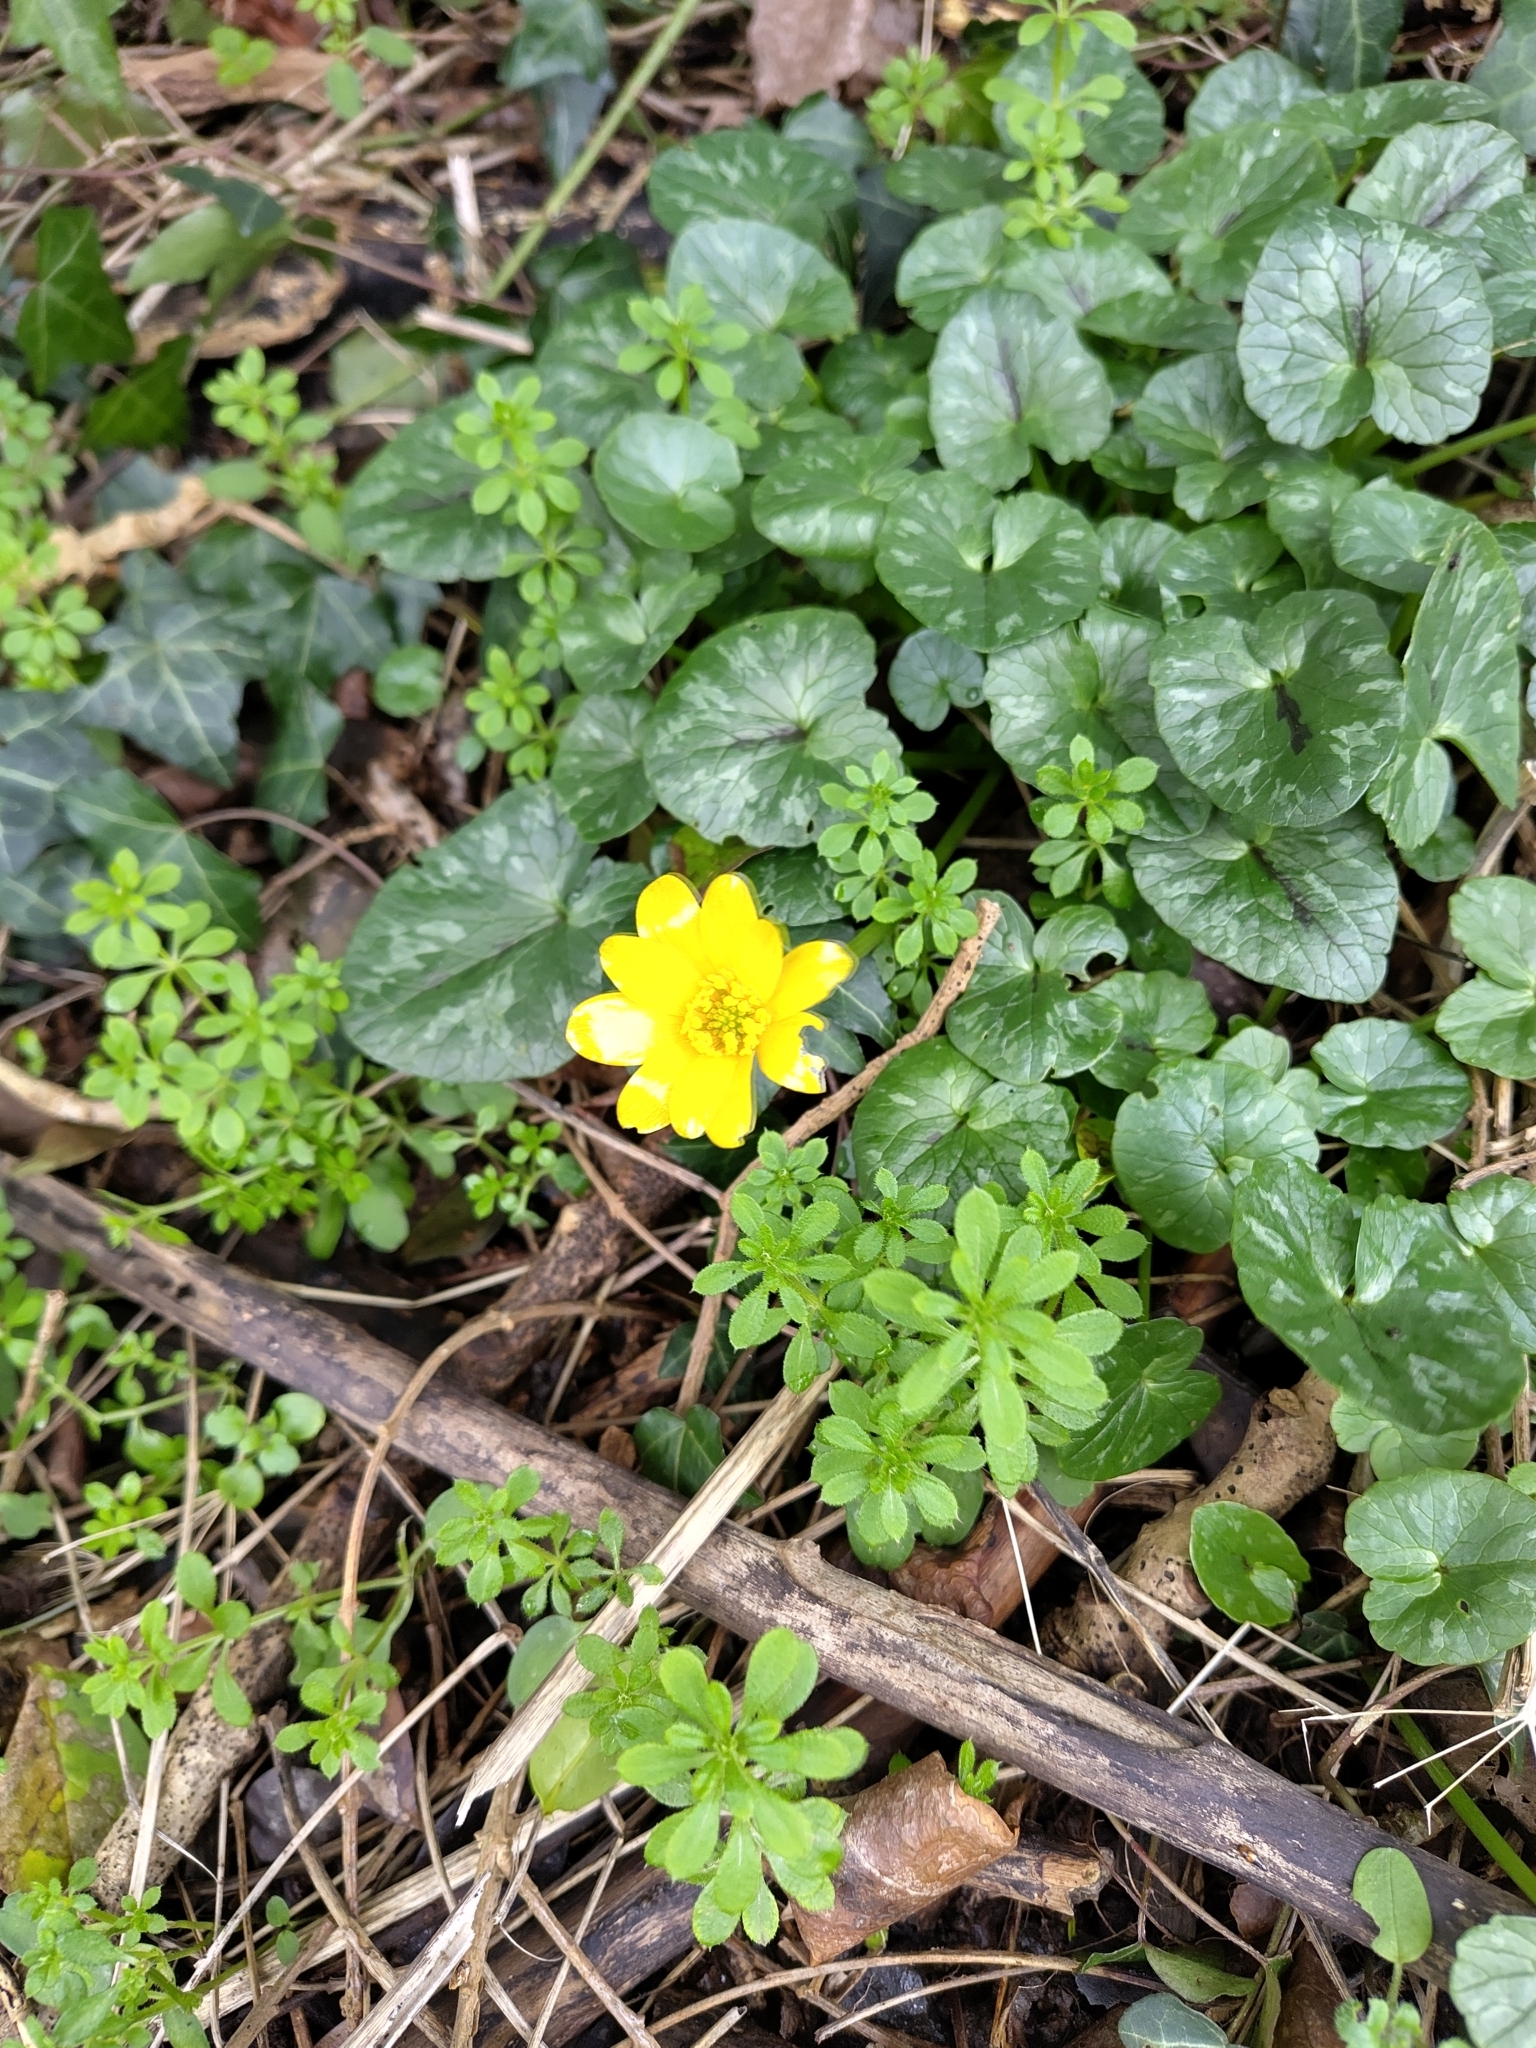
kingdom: Plantae
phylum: Tracheophyta
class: Magnoliopsida
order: Ranunculales
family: Ranunculaceae
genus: Ficaria
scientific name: Ficaria verna
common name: Lesser celandine
